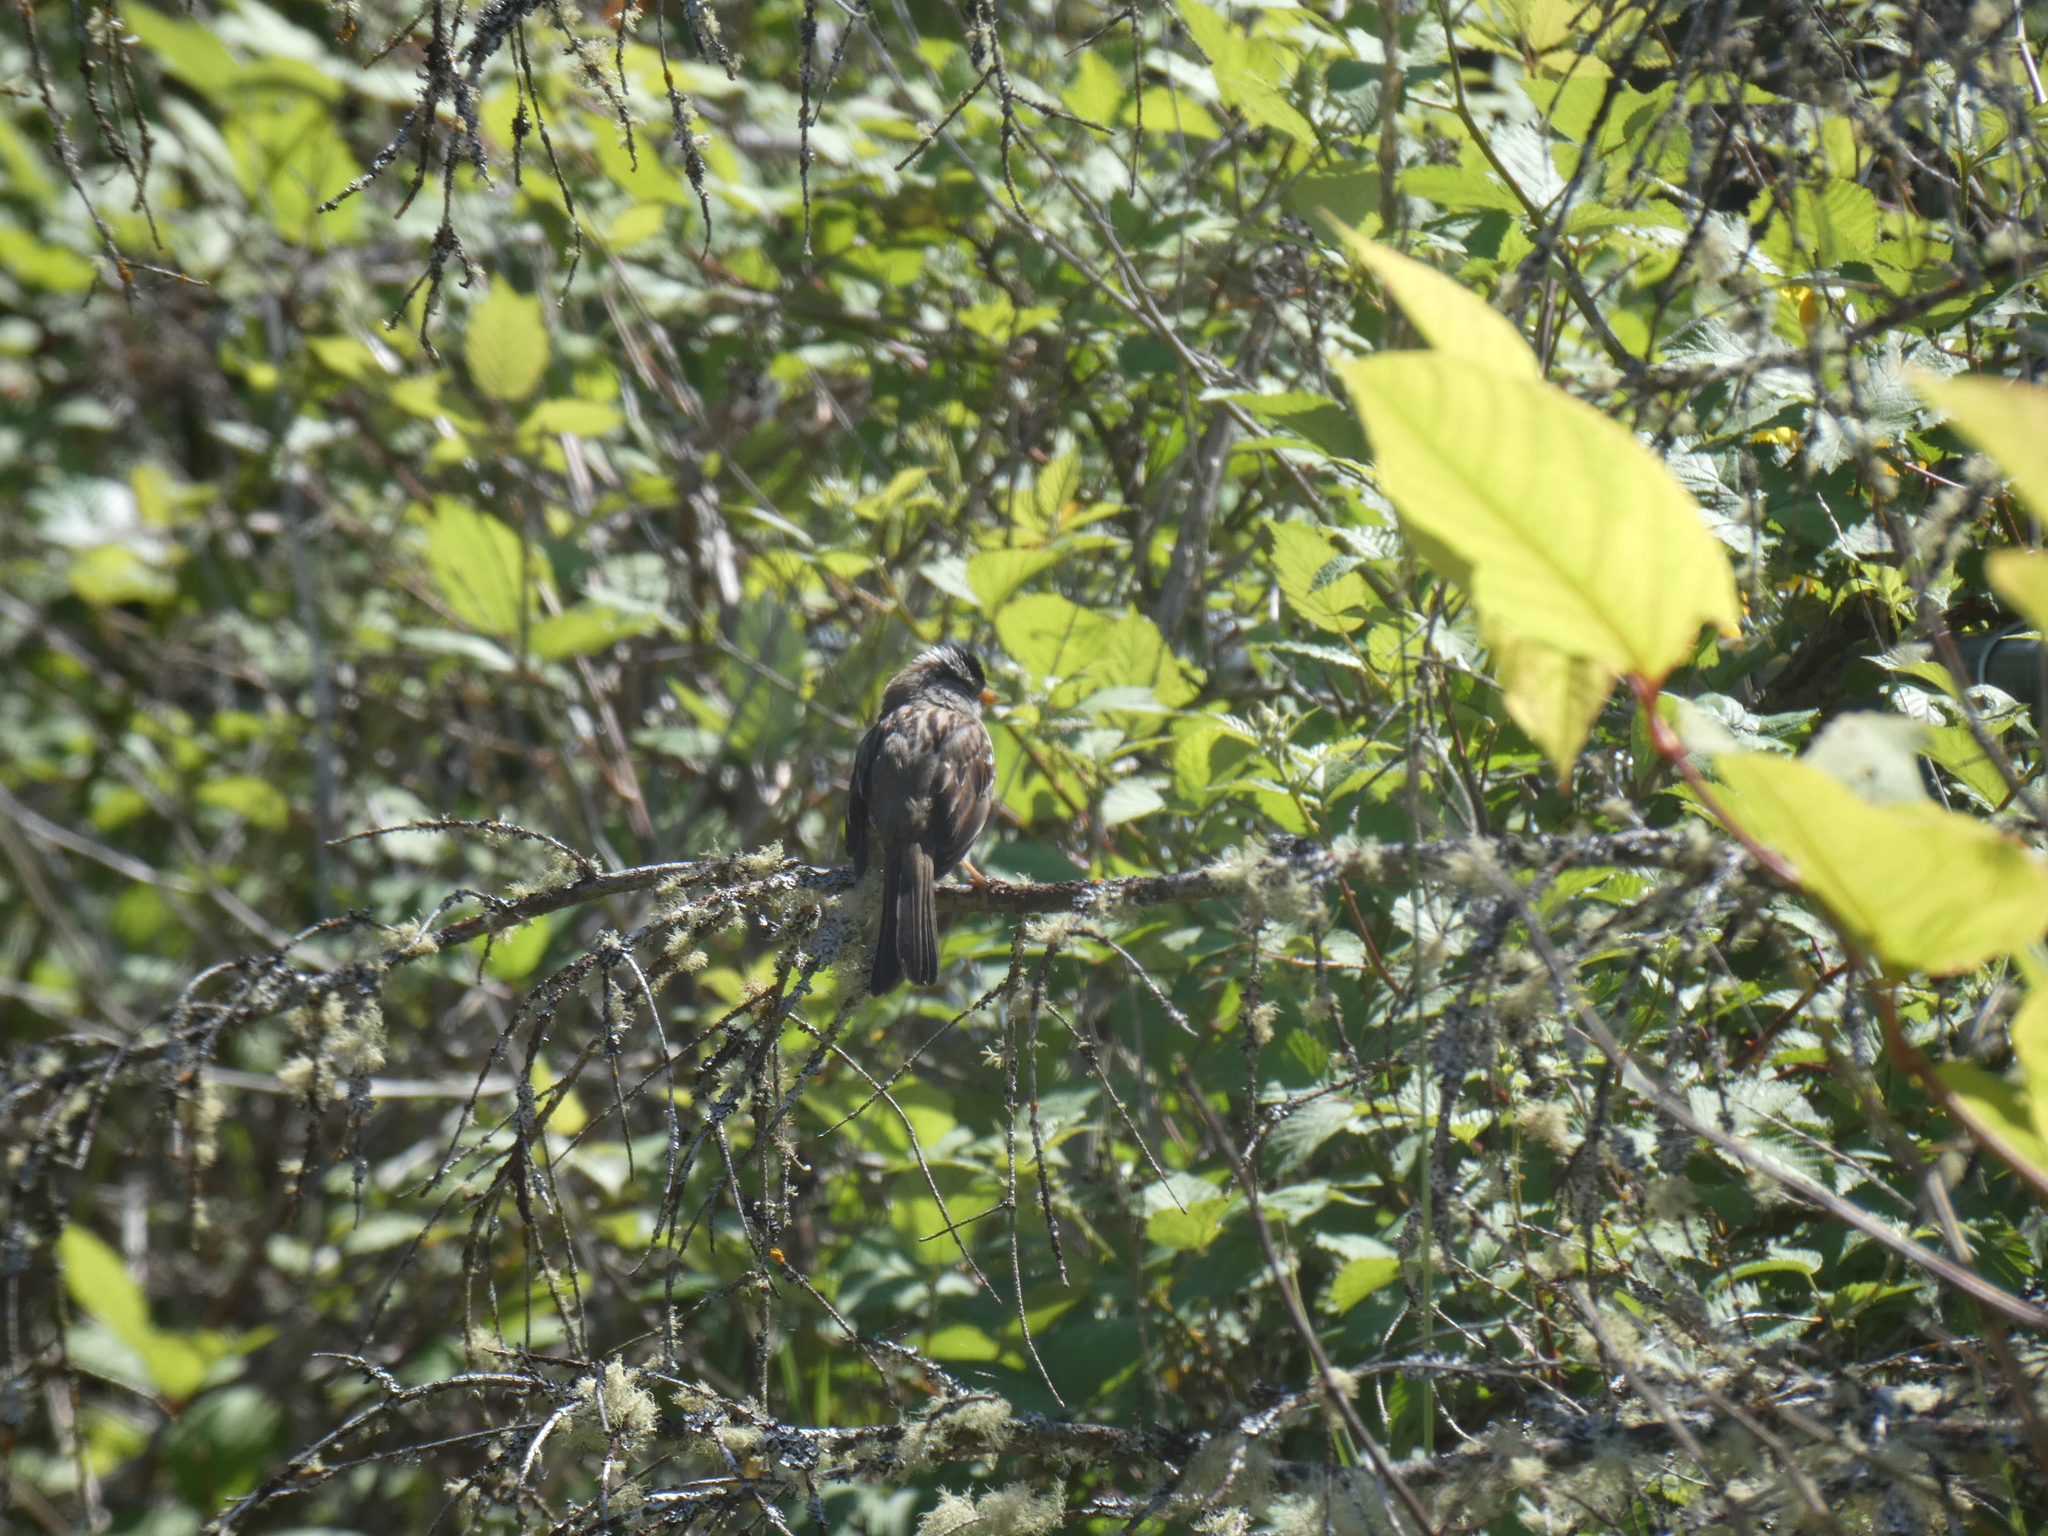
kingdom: Animalia
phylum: Chordata
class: Aves
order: Passeriformes
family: Passerellidae
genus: Zonotrichia
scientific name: Zonotrichia leucophrys
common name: White-crowned sparrow
